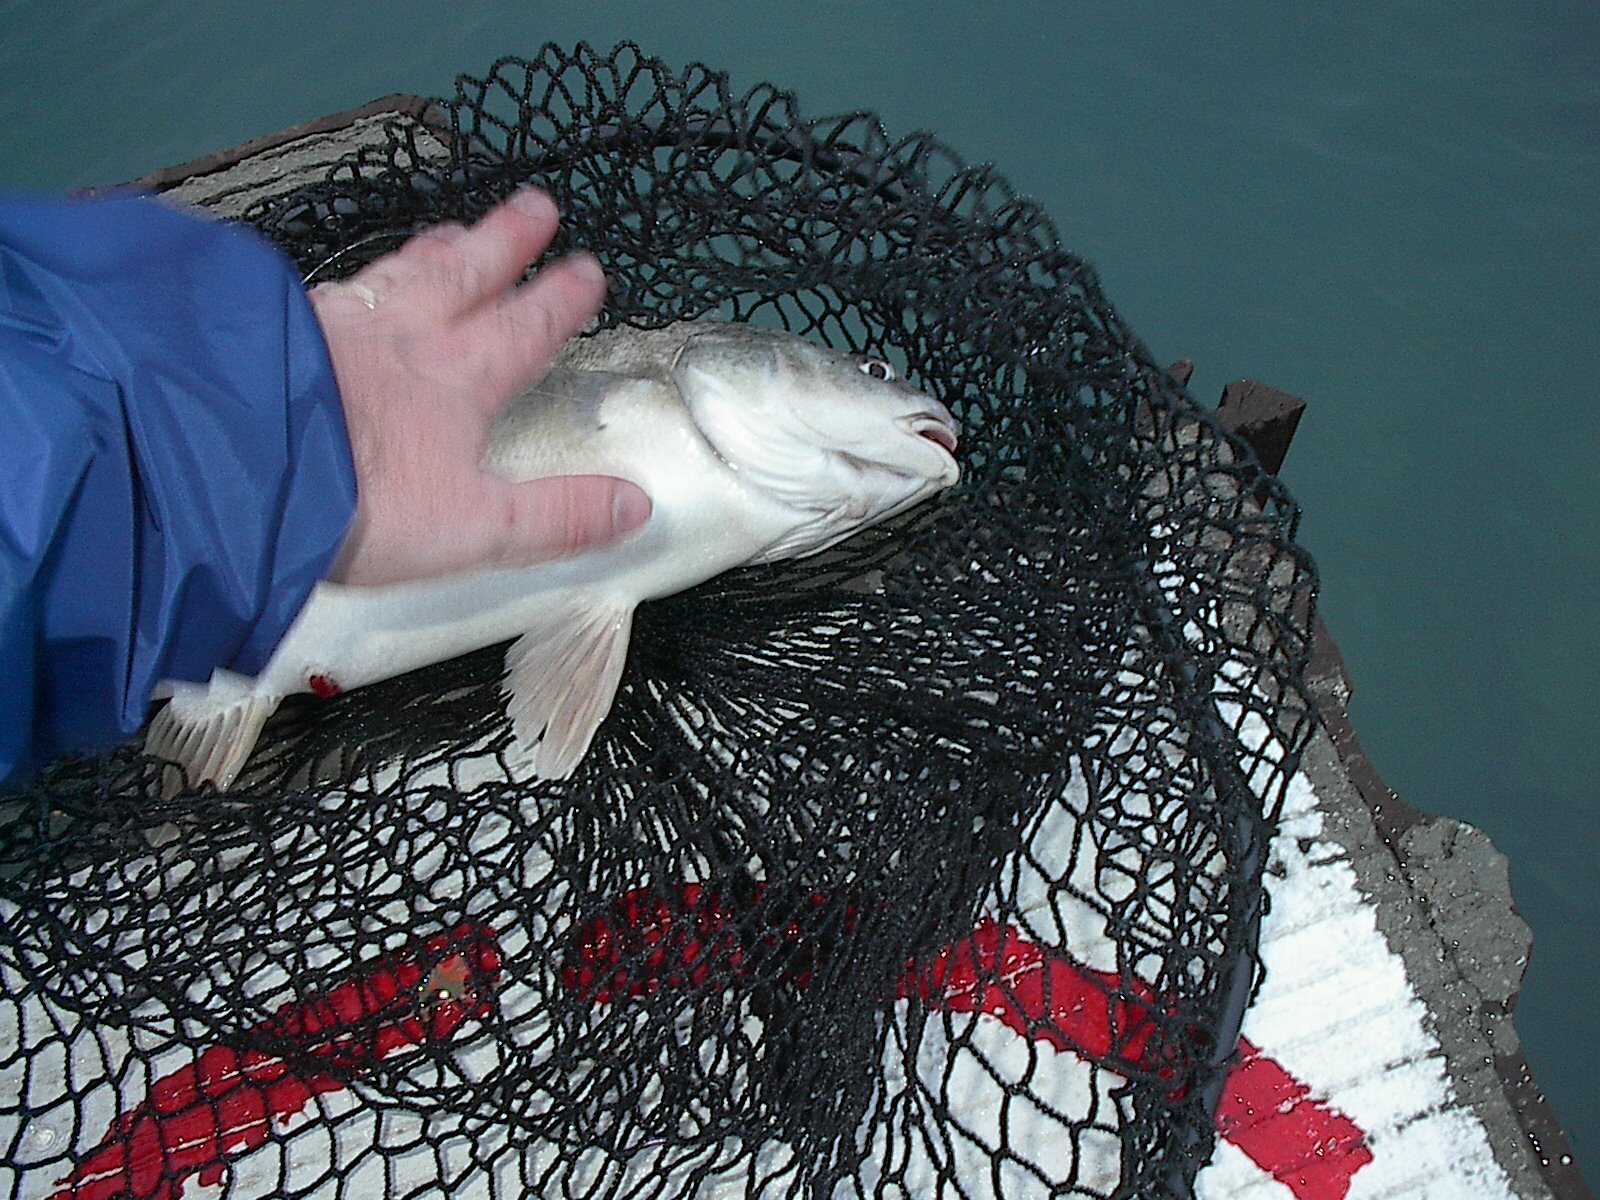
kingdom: Animalia
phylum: Chordata
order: Perciformes
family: Sciaenidae
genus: Aplodinotus
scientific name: Aplodinotus grunniens
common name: Freshwater drum
